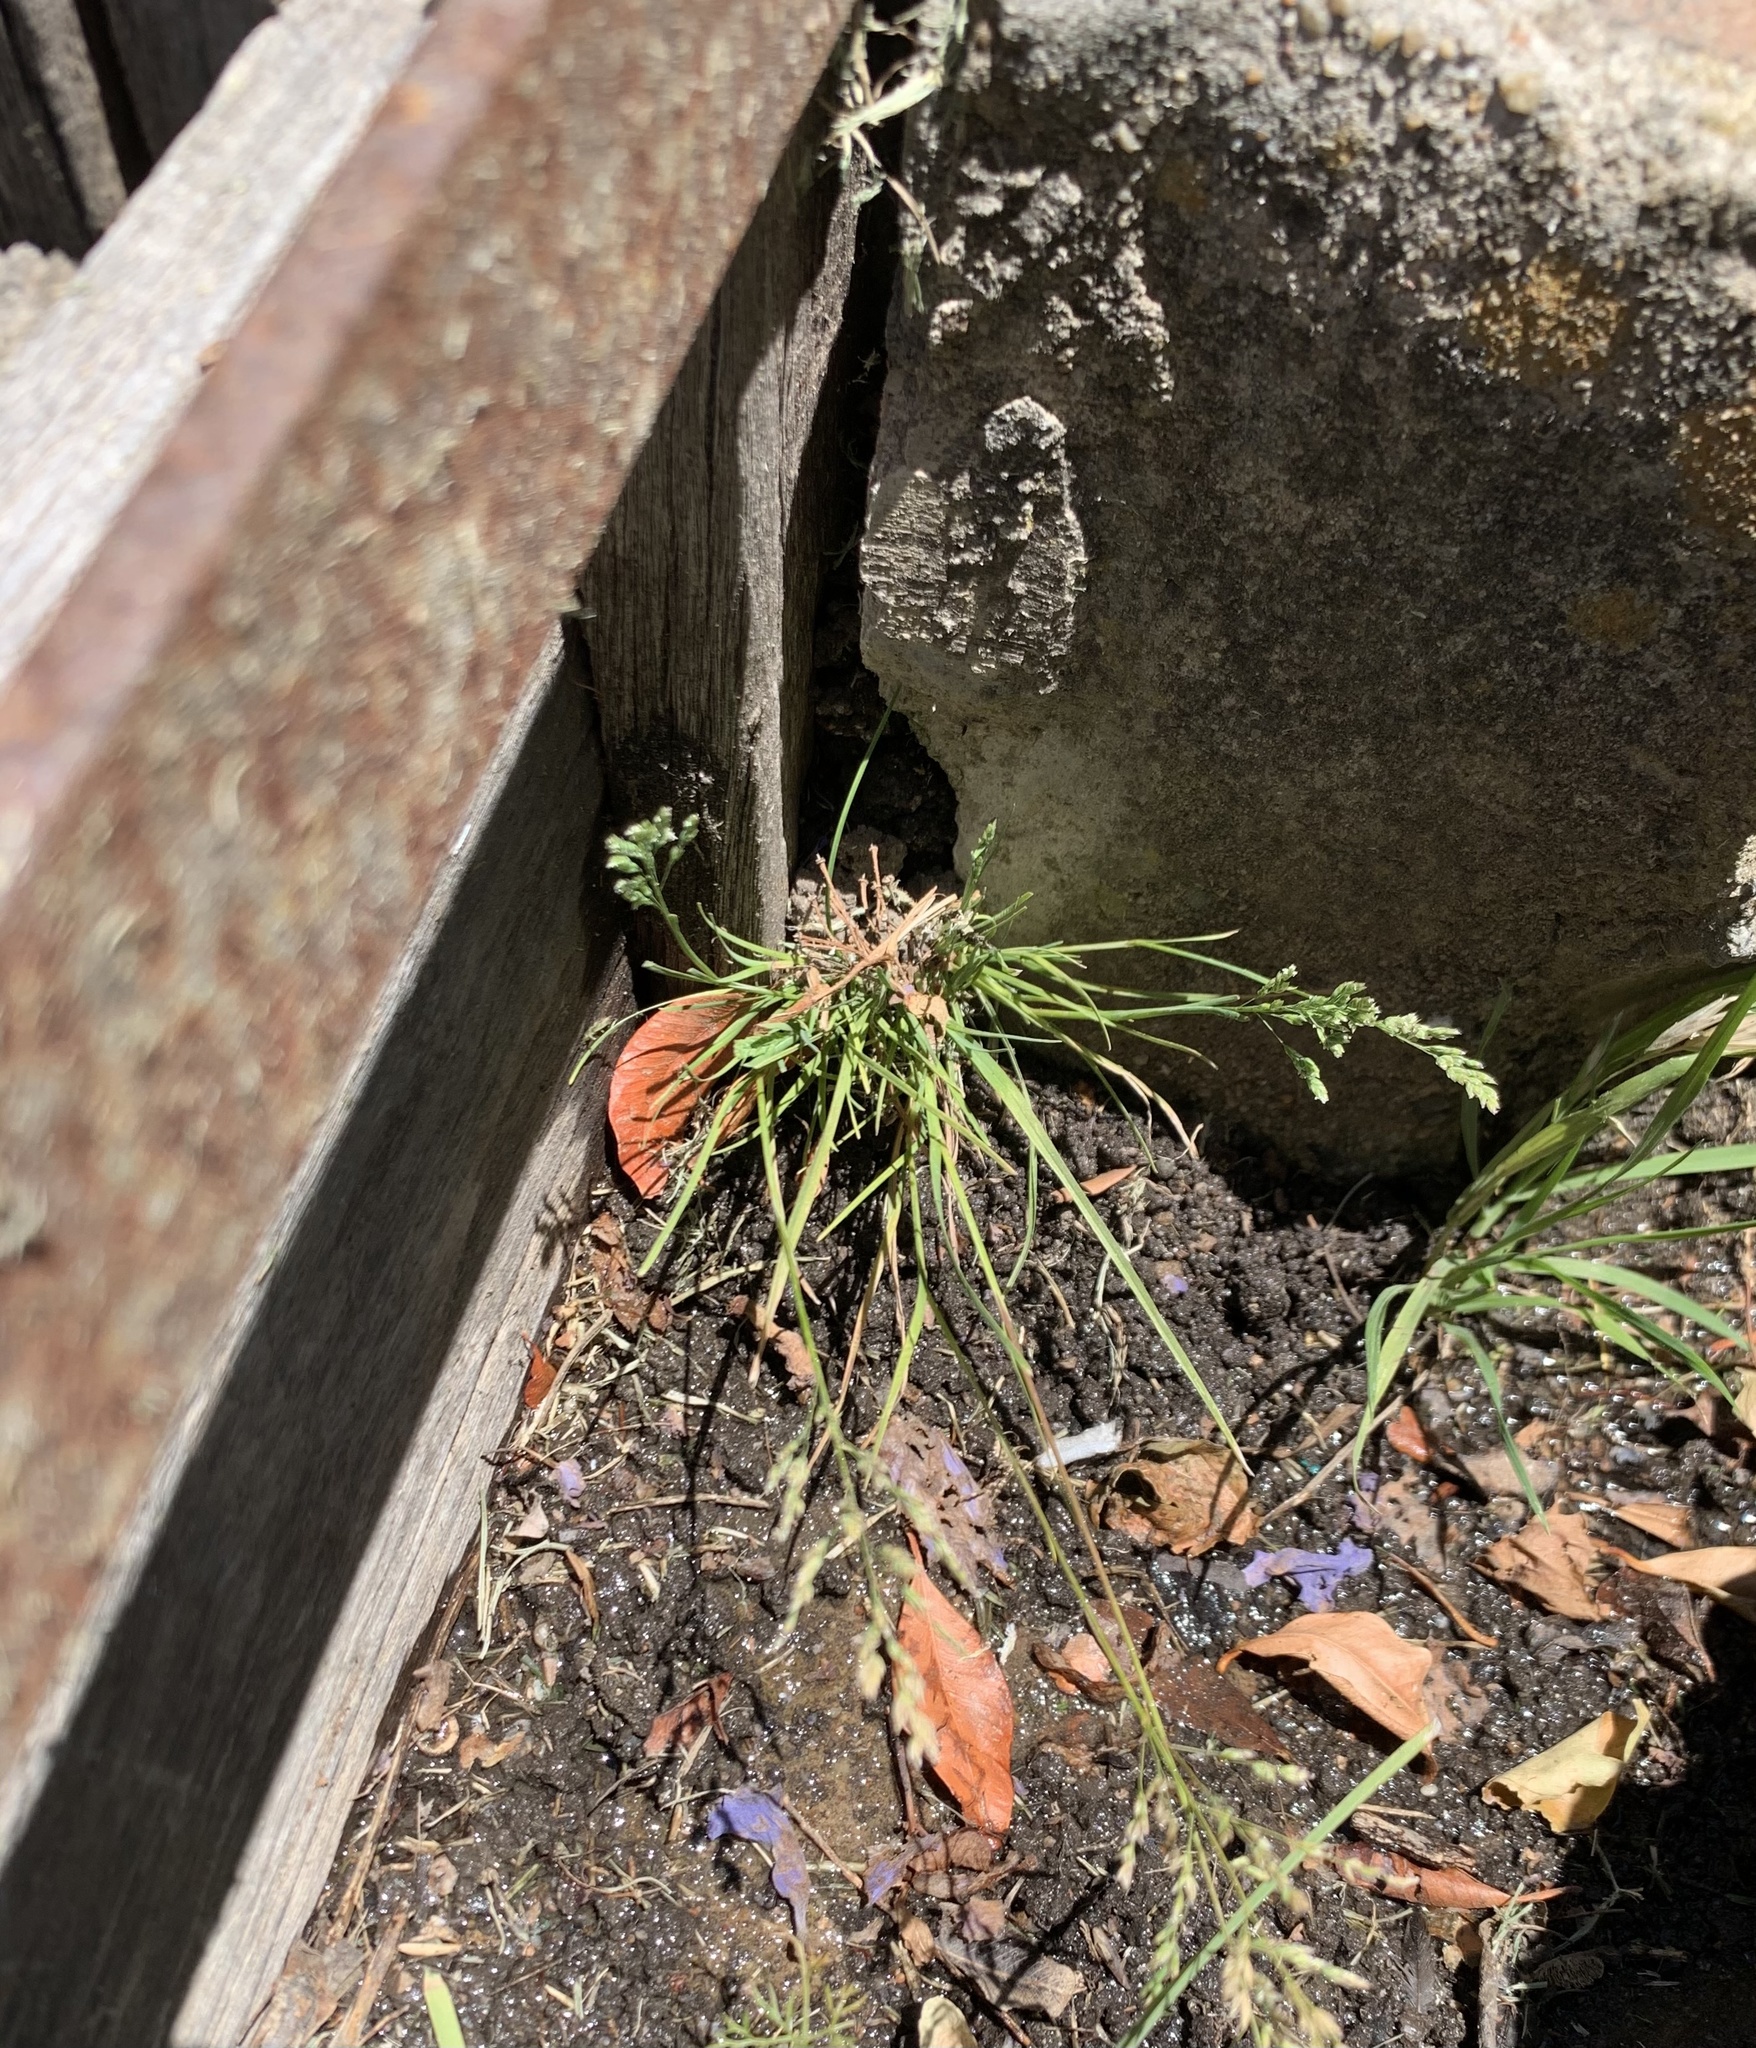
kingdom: Plantae
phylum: Tracheophyta
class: Liliopsida
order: Poales
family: Poaceae
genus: Poa
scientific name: Poa annua
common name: Annual bluegrass
